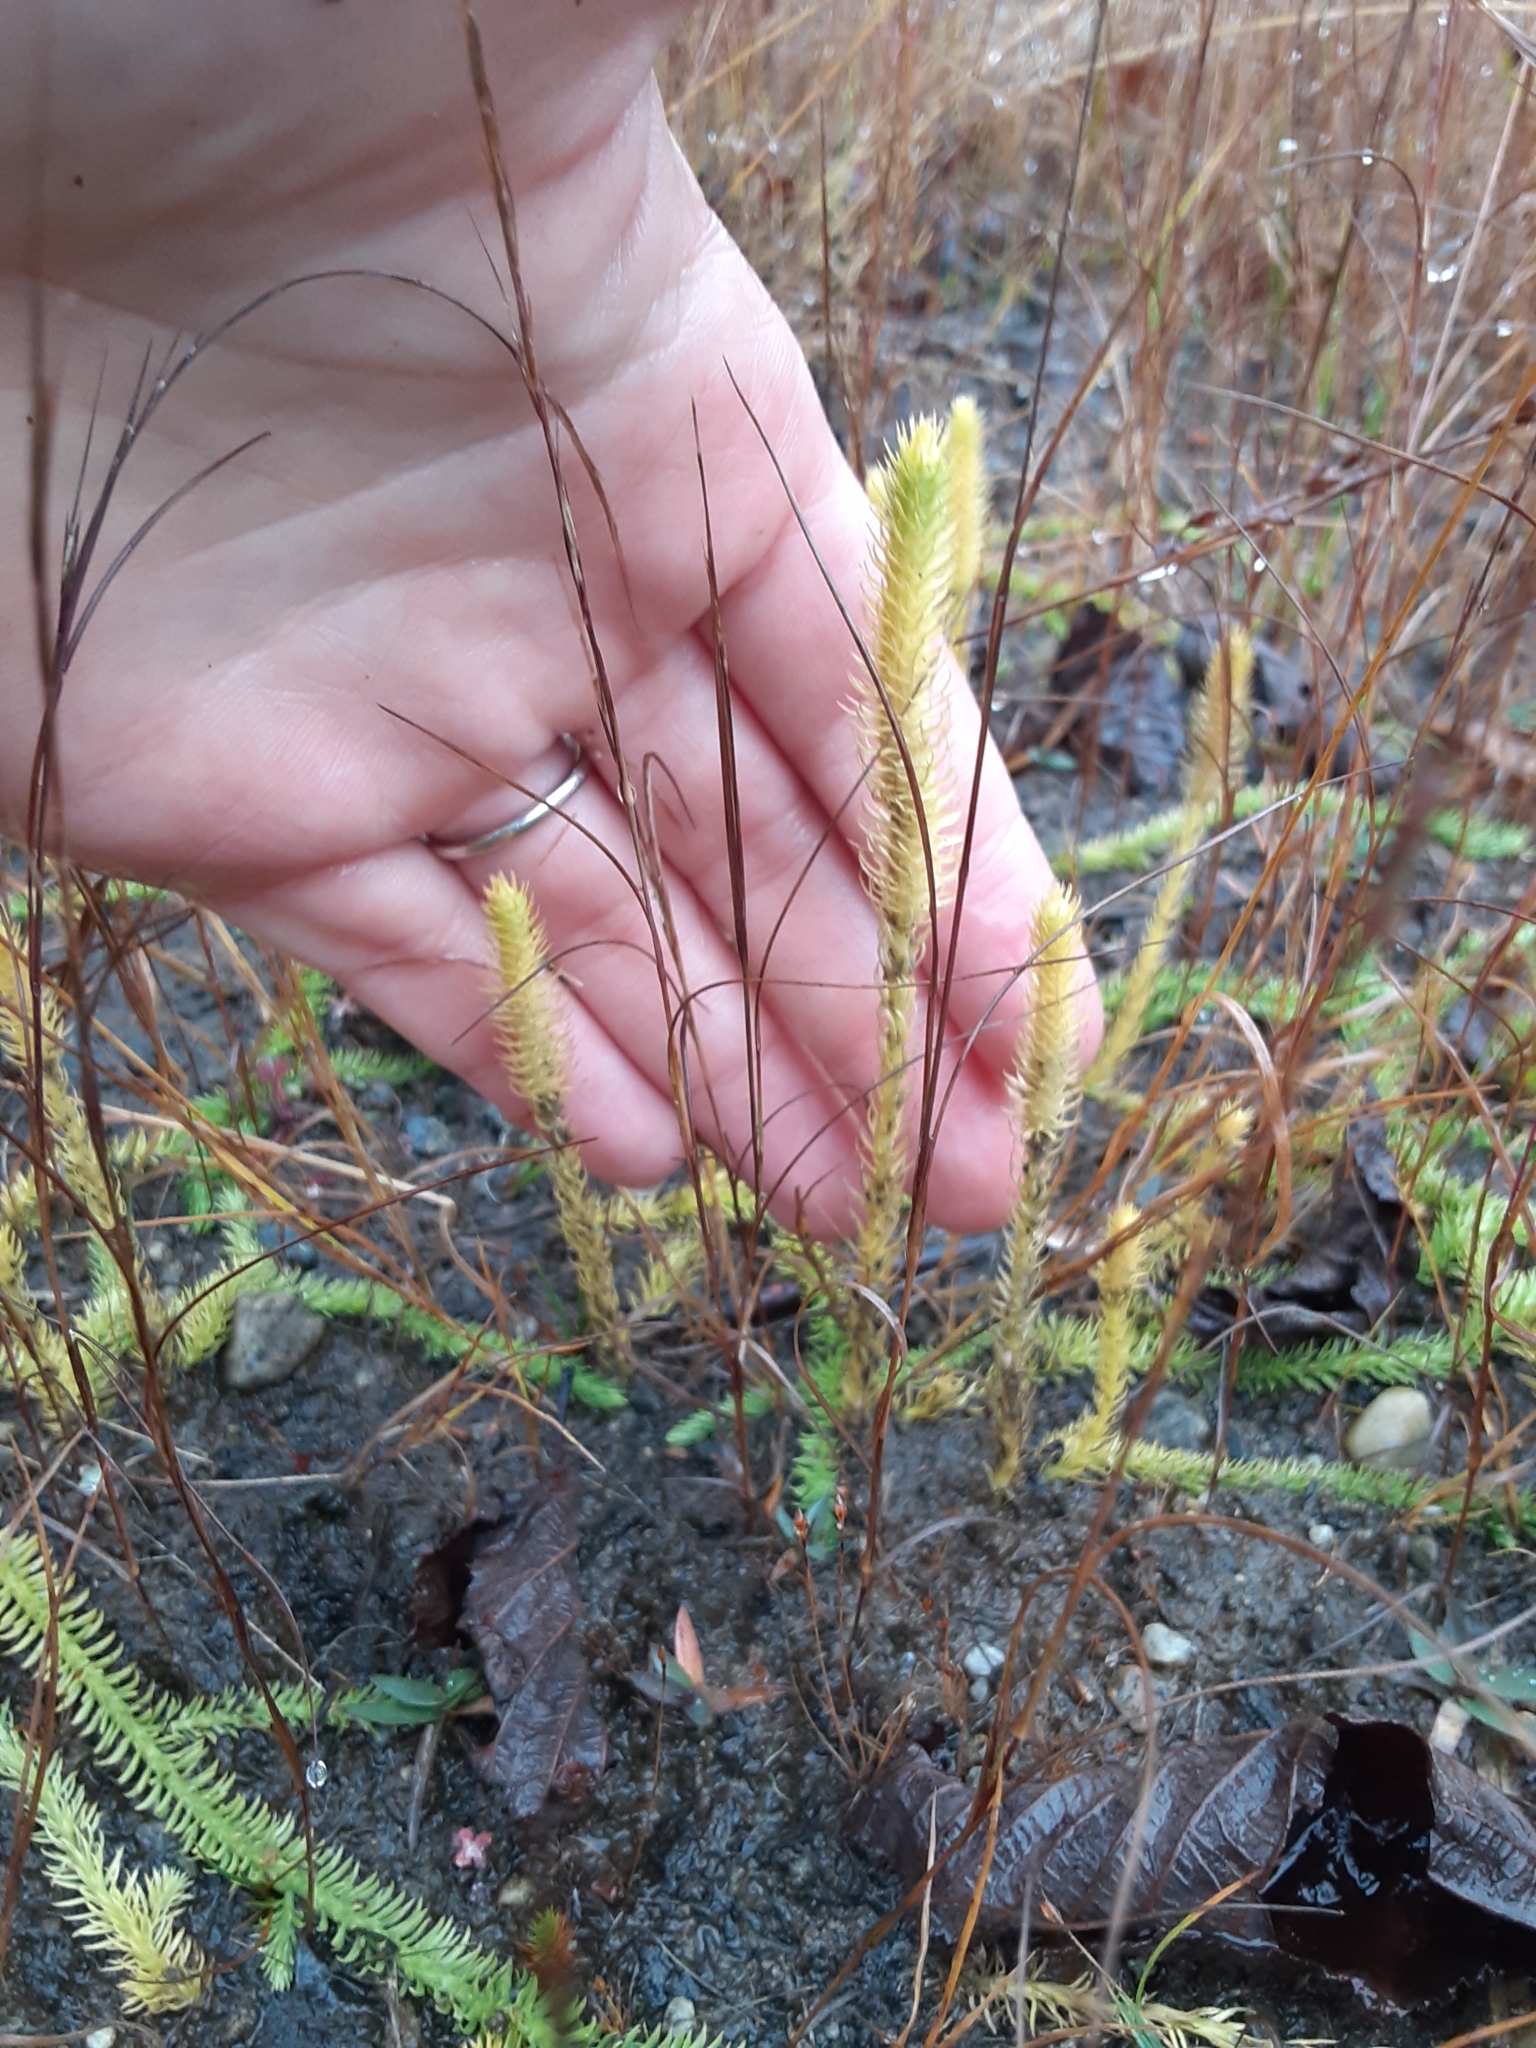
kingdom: Plantae
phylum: Tracheophyta
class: Lycopodiopsida
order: Lycopodiales
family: Lycopodiaceae
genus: Lycopodiella
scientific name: Lycopodiella inundata
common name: Marsh clubmoss
